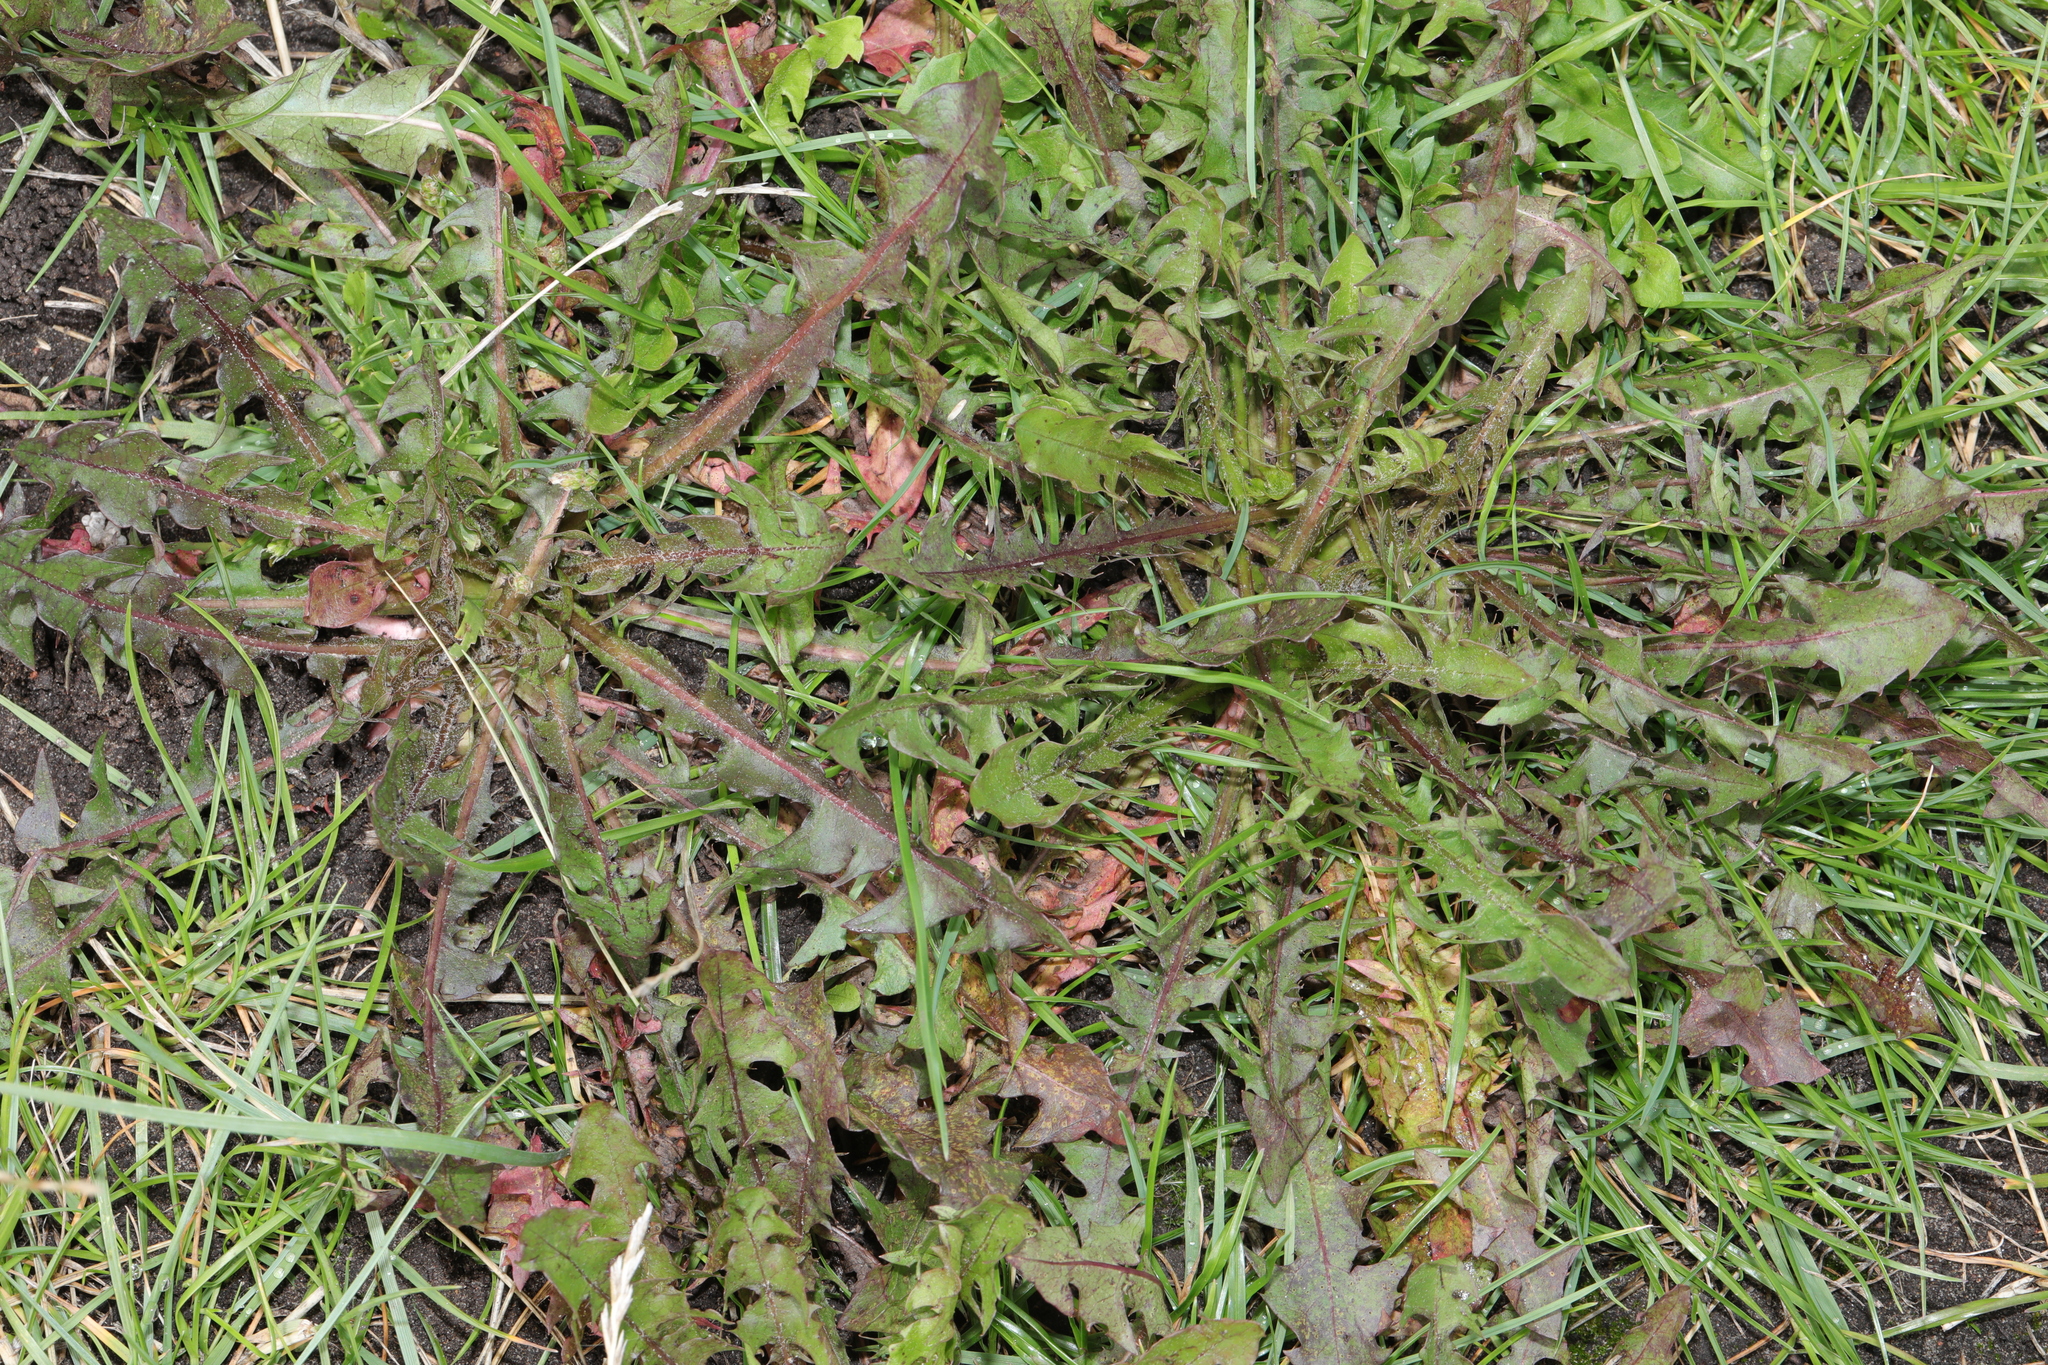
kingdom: Plantae
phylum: Tracheophyta
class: Magnoliopsida
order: Asterales
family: Asteraceae
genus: Taraxacum
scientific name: Taraxacum officinale
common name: Common dandelion
